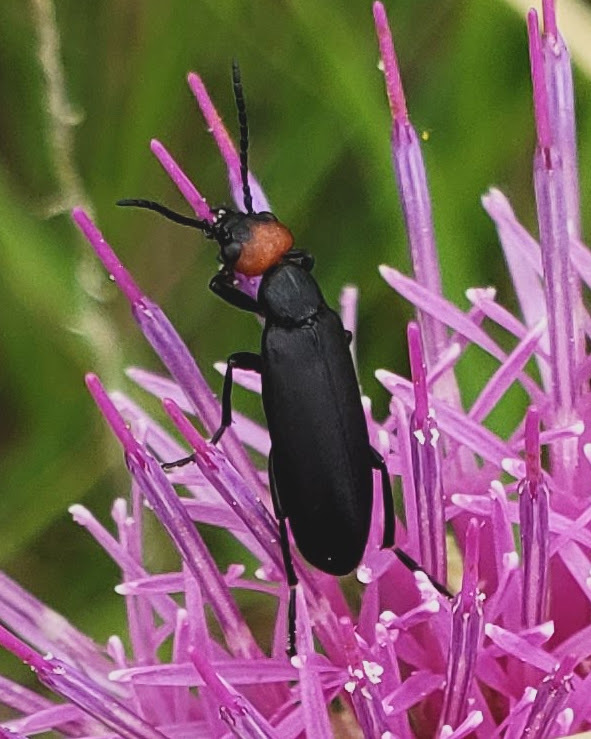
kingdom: Animalia
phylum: Arthropoda
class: Insecta
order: Coleoptera
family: Meloidae
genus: Epicauta
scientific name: Epicauta atrata
